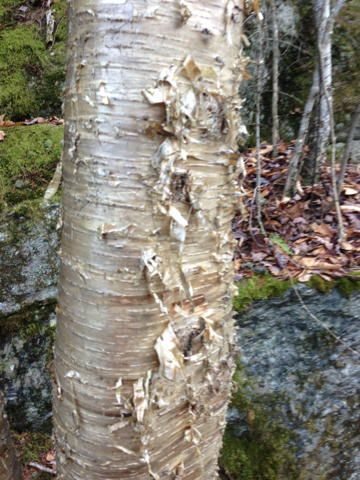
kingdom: Plantae
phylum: Tracheophyta
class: Magnoliopsida
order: Fagales
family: Betulaceae
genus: Betula
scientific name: Betula alleghaniensis
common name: Yellow birch
